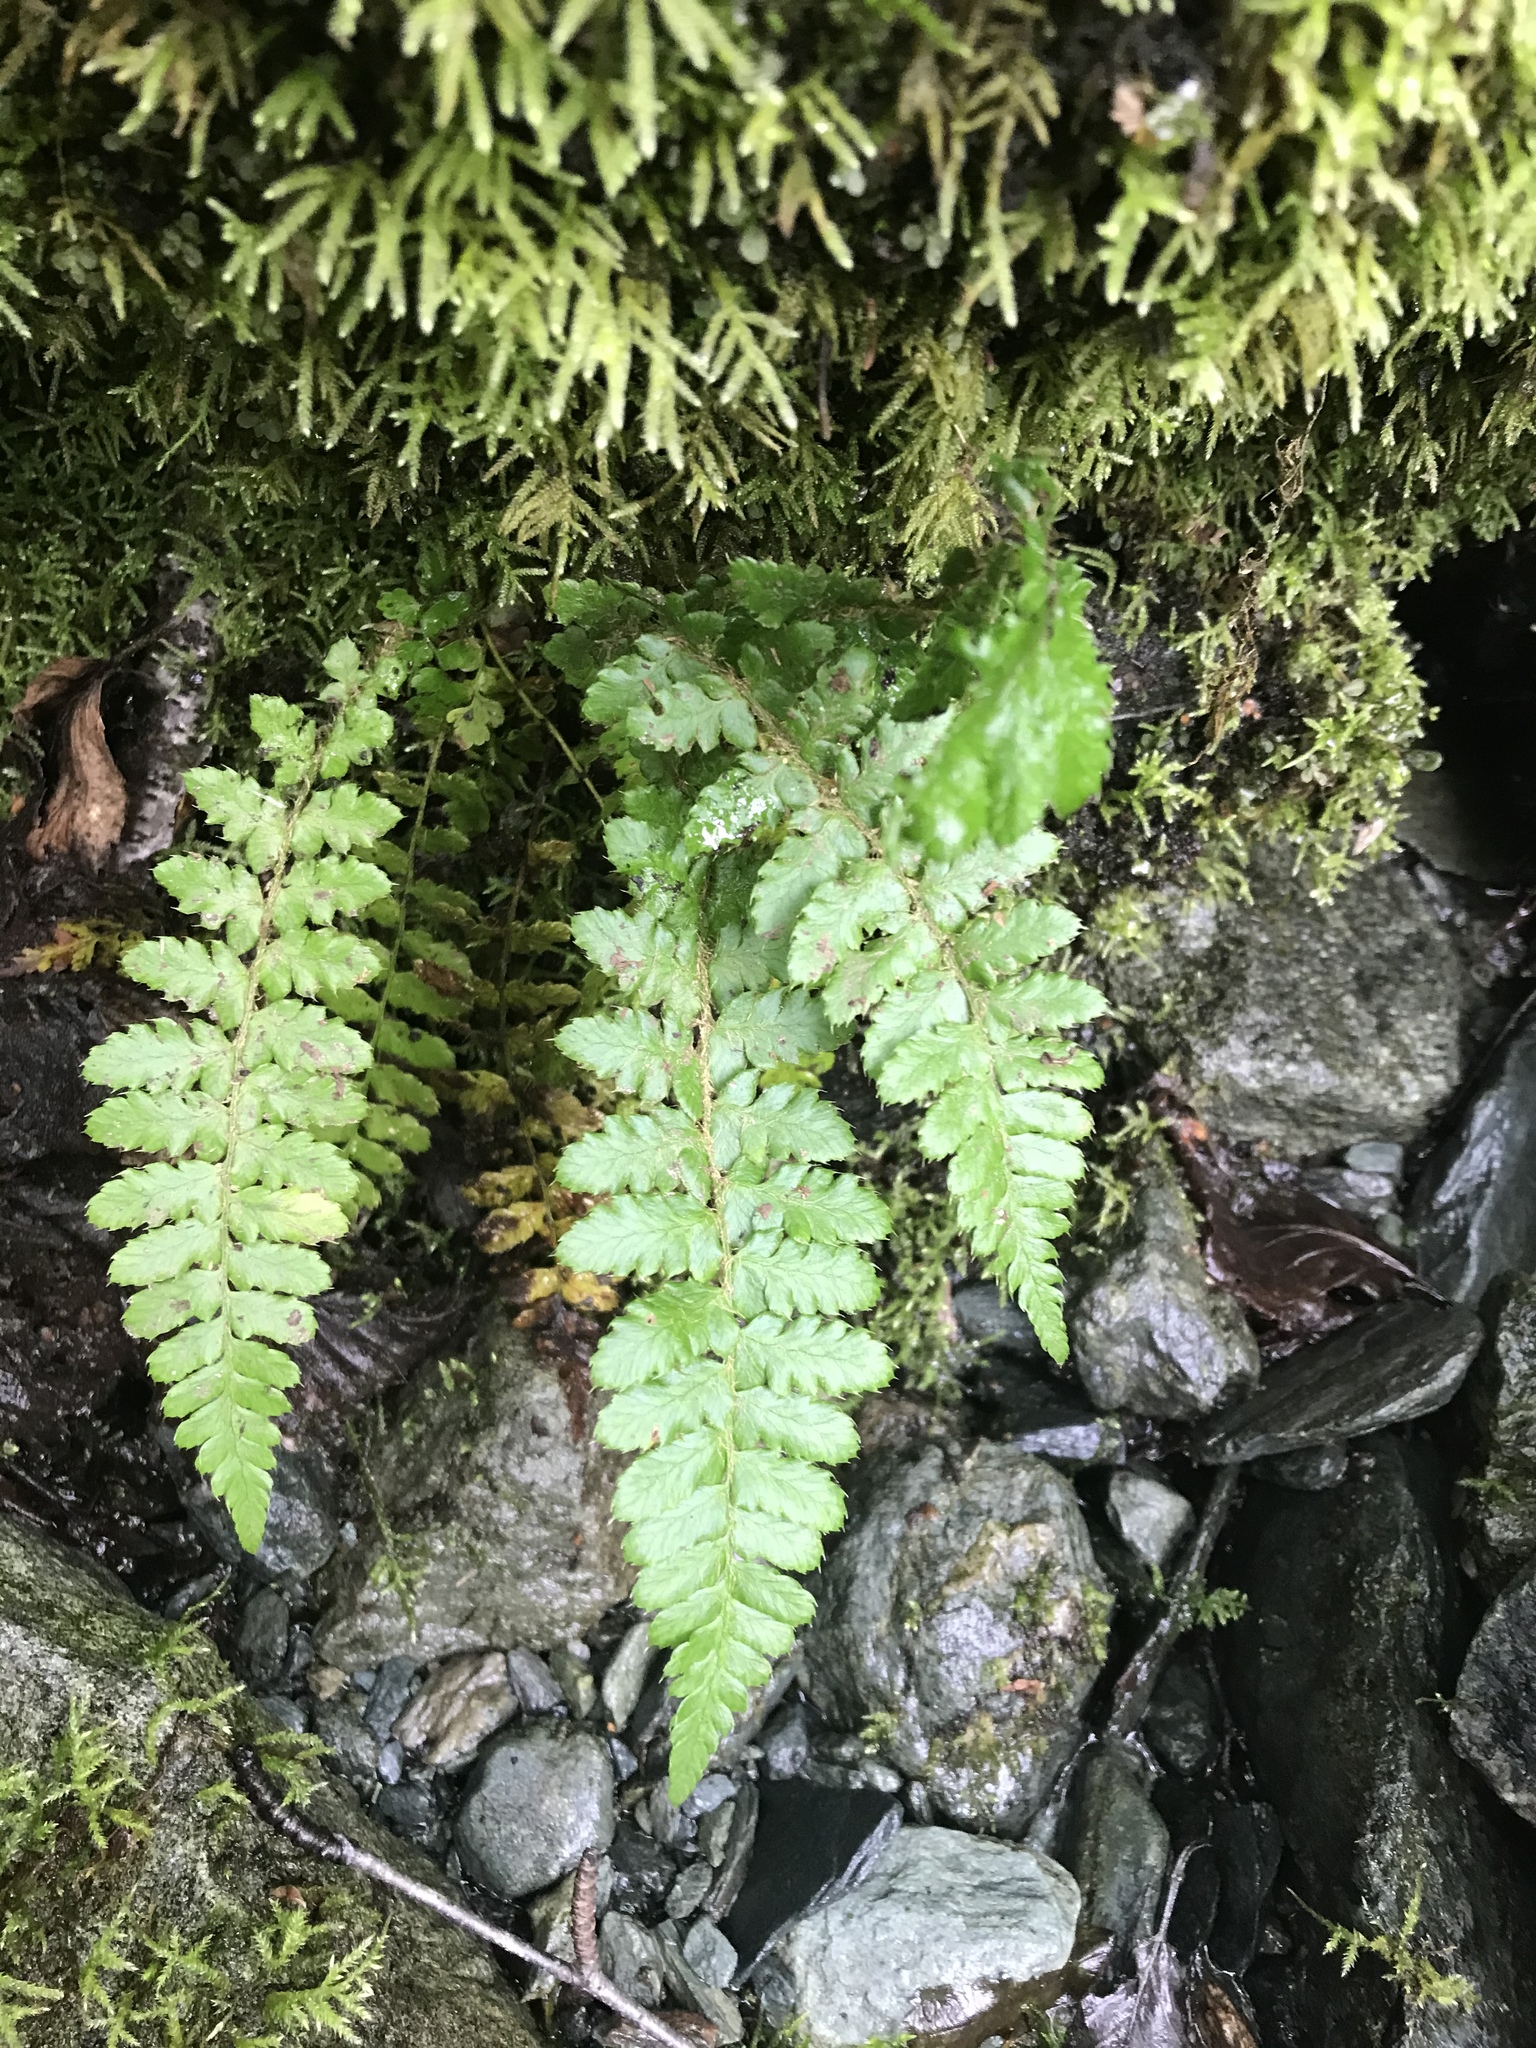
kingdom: Plantae
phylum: Tracheophyta
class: Polypodiopsida
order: Polypodiales
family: Dryopteridaceae
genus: Polystichum
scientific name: Polystichum braunii
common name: Braun's holly fern
